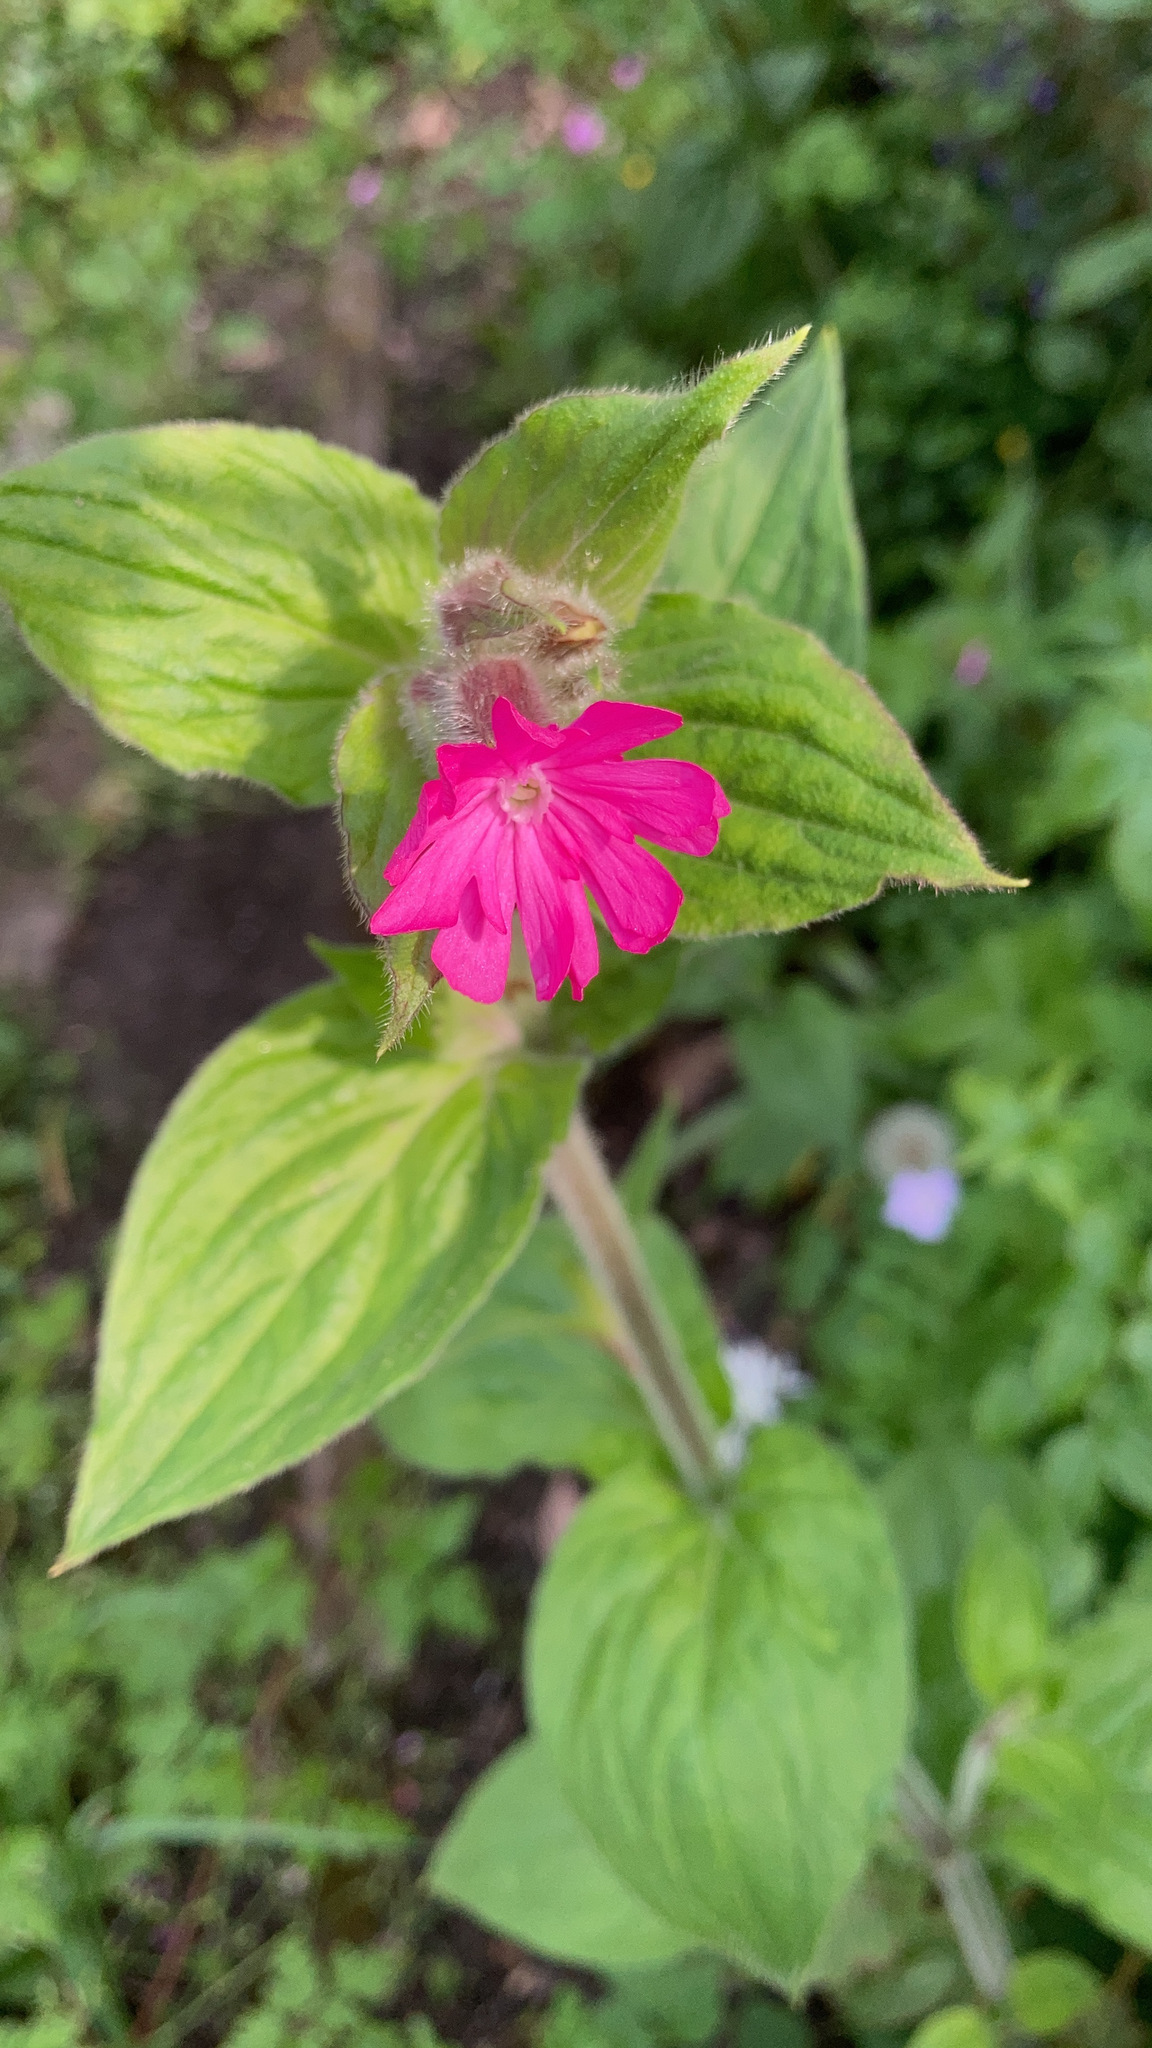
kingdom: Plantae
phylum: Tracheophyta
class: Magnoliopsida
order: Caryophyllales
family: Caryophyllaceae
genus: Silene
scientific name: Silene dioica
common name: Red campion
